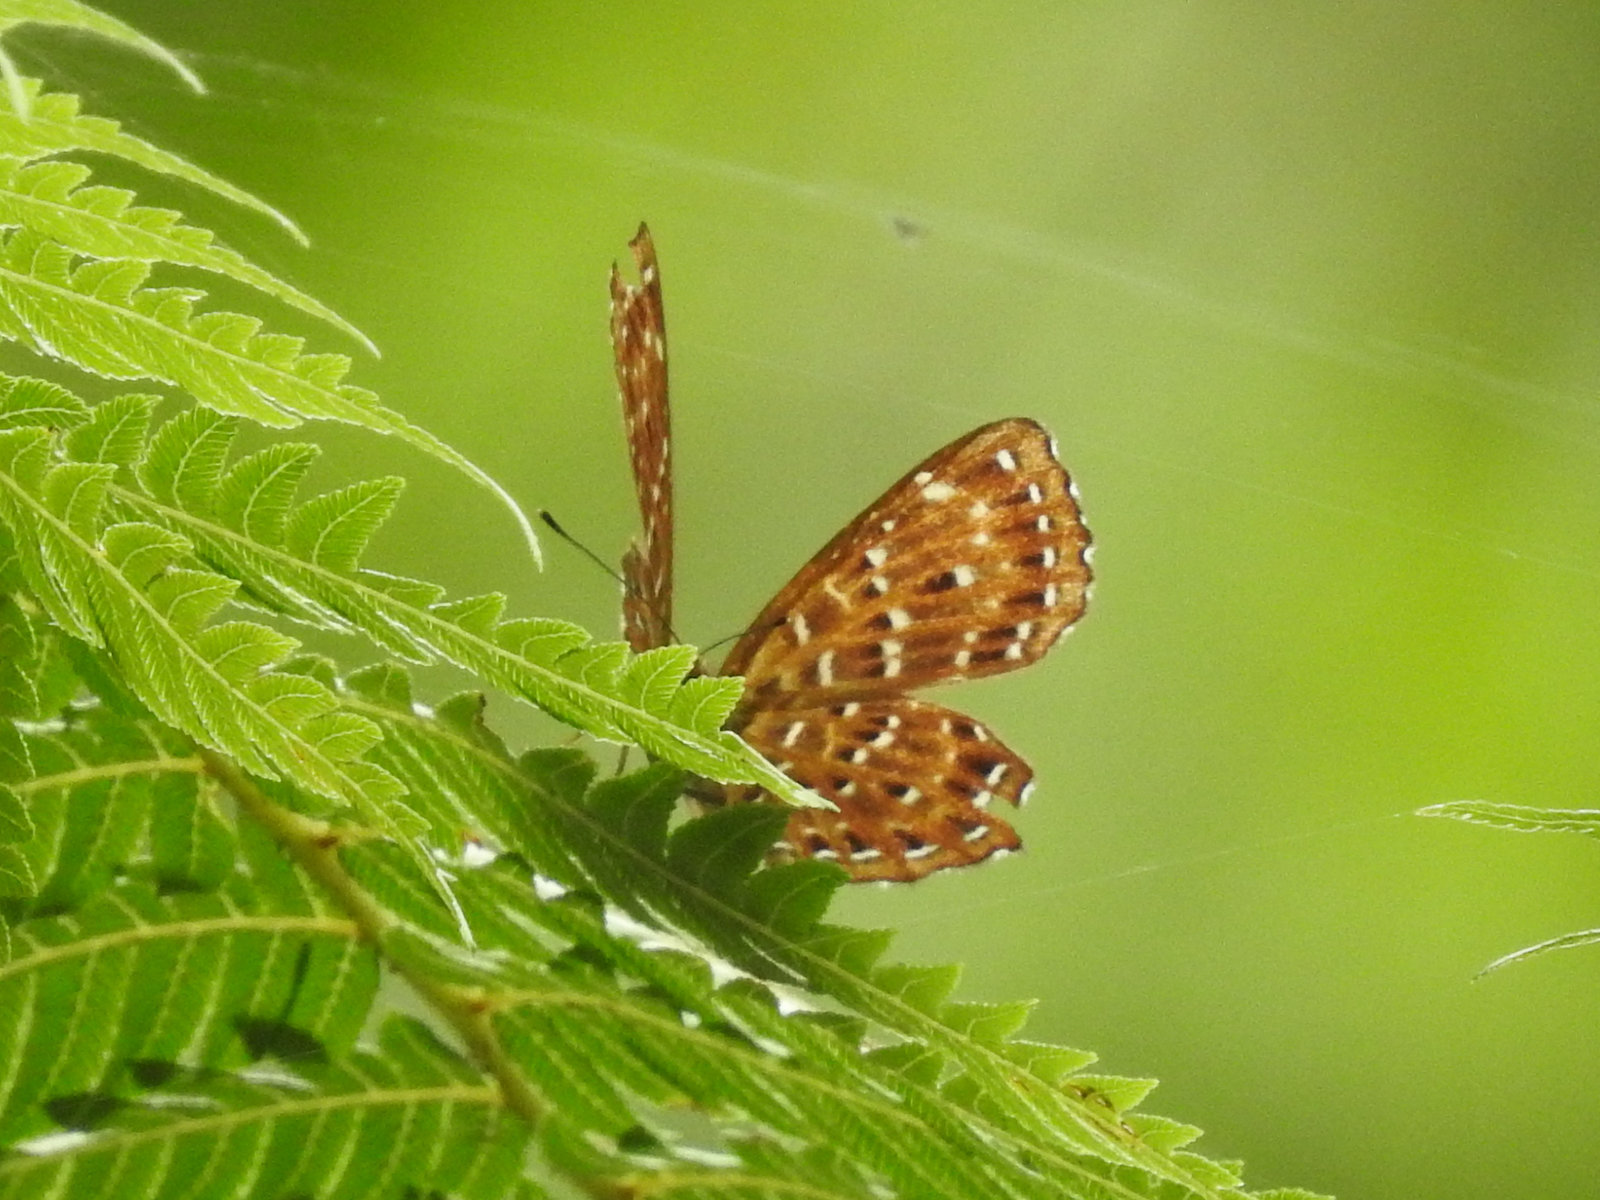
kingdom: Animalia
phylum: Arthropoda
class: Insecta
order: Lepidoptera
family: Riodinidae
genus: Zemeros
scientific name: Zemeros flegyas
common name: Punchinello
